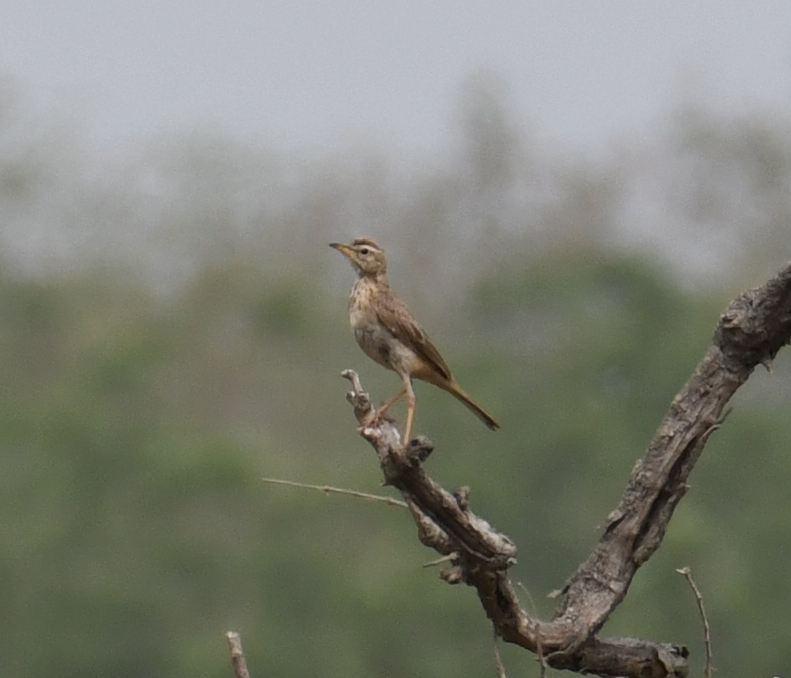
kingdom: Animalia
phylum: Chordata
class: Aves
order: Passeriformes
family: Motacillidae
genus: Anthus
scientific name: Anthus leucophrys
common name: Plain-backed pipit
